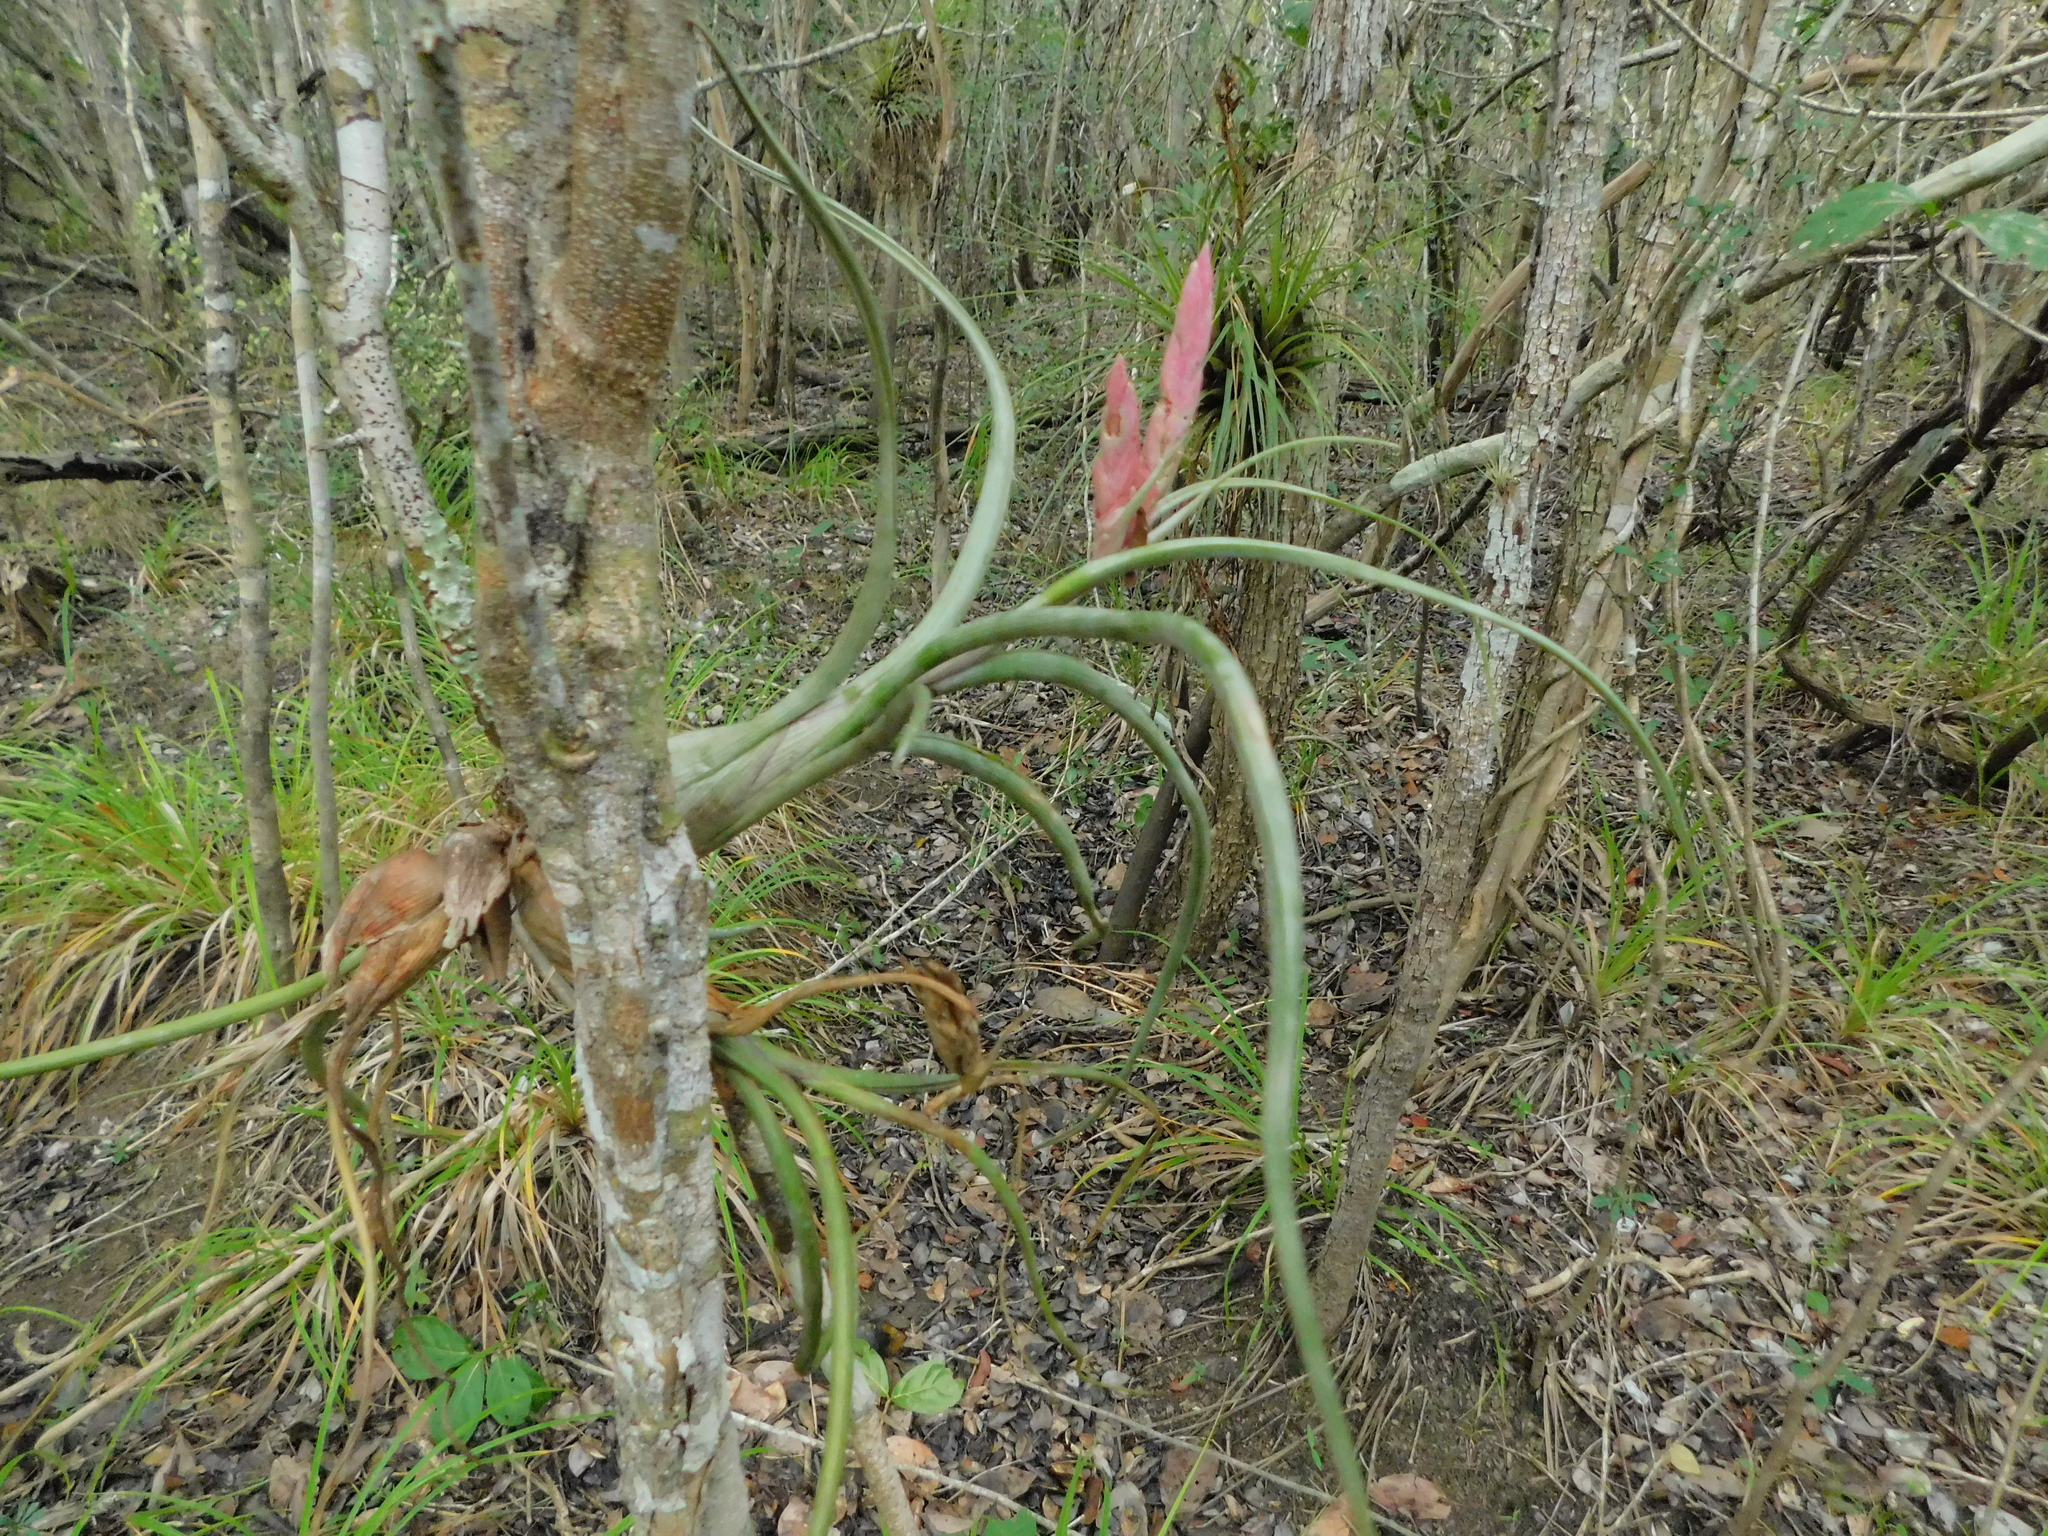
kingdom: Plantae
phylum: Tracheophyta
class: Liliopsida
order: Poales
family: Bromeliaceae
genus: Tillandsia
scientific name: Tillandsia pseudobaileyi
